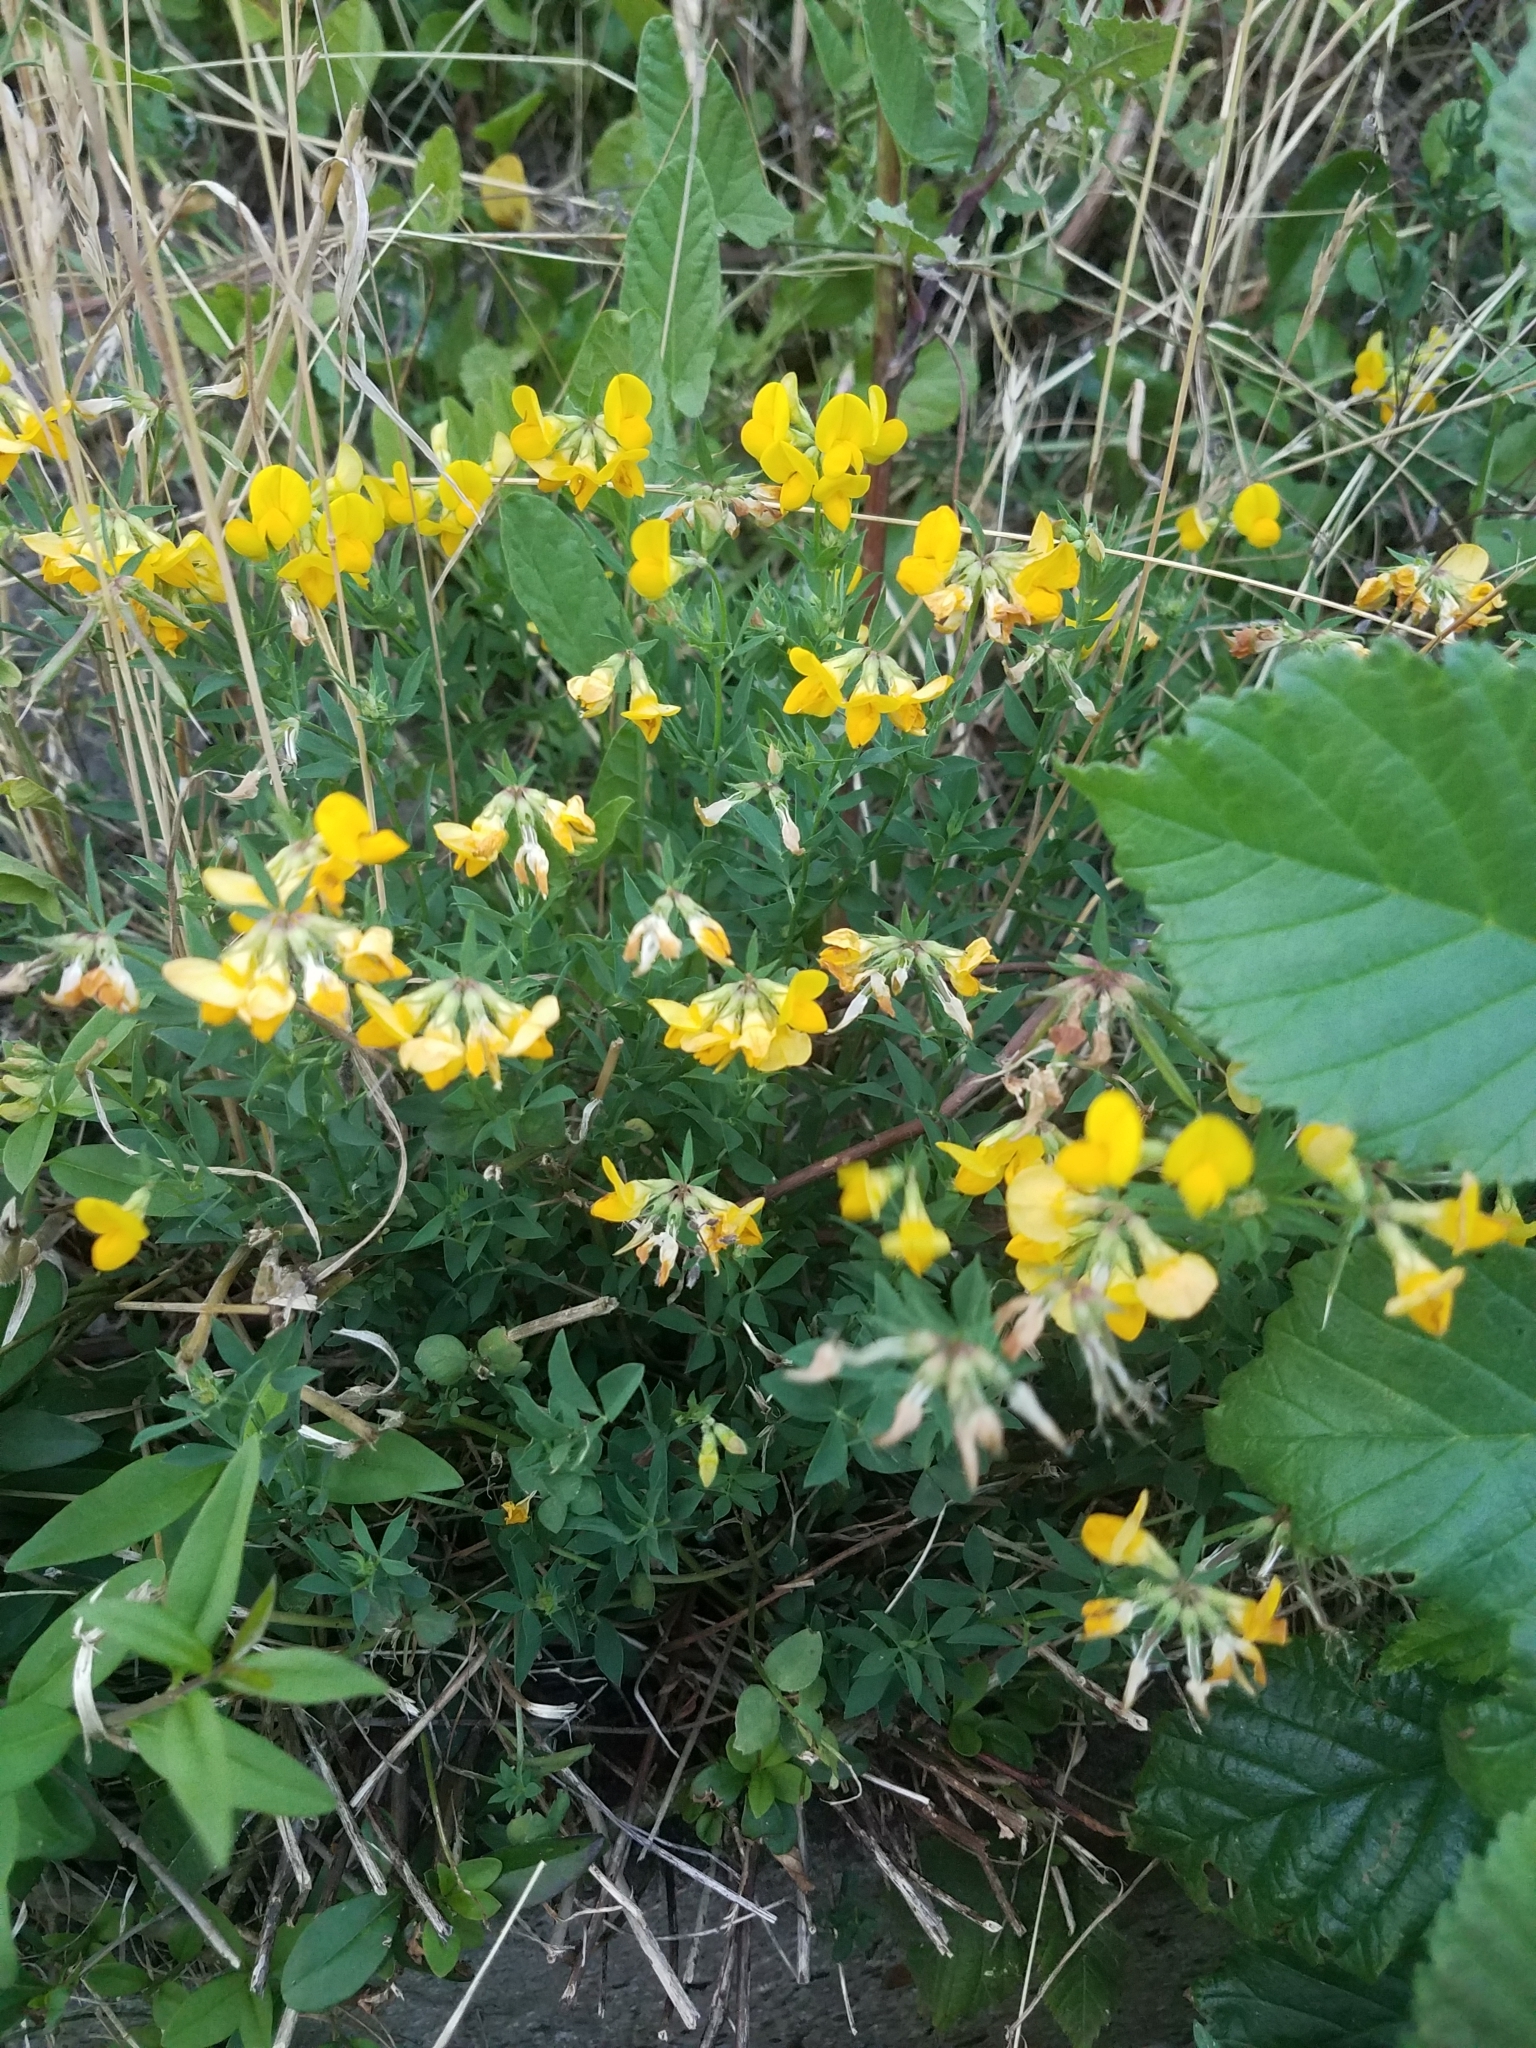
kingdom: Plantae
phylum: Tracheophyta
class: Magnoliopsida
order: Fabales
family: Fabaceae
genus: Lotus
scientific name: Lotus corniculatus
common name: Common bird's-foot-trefoil
